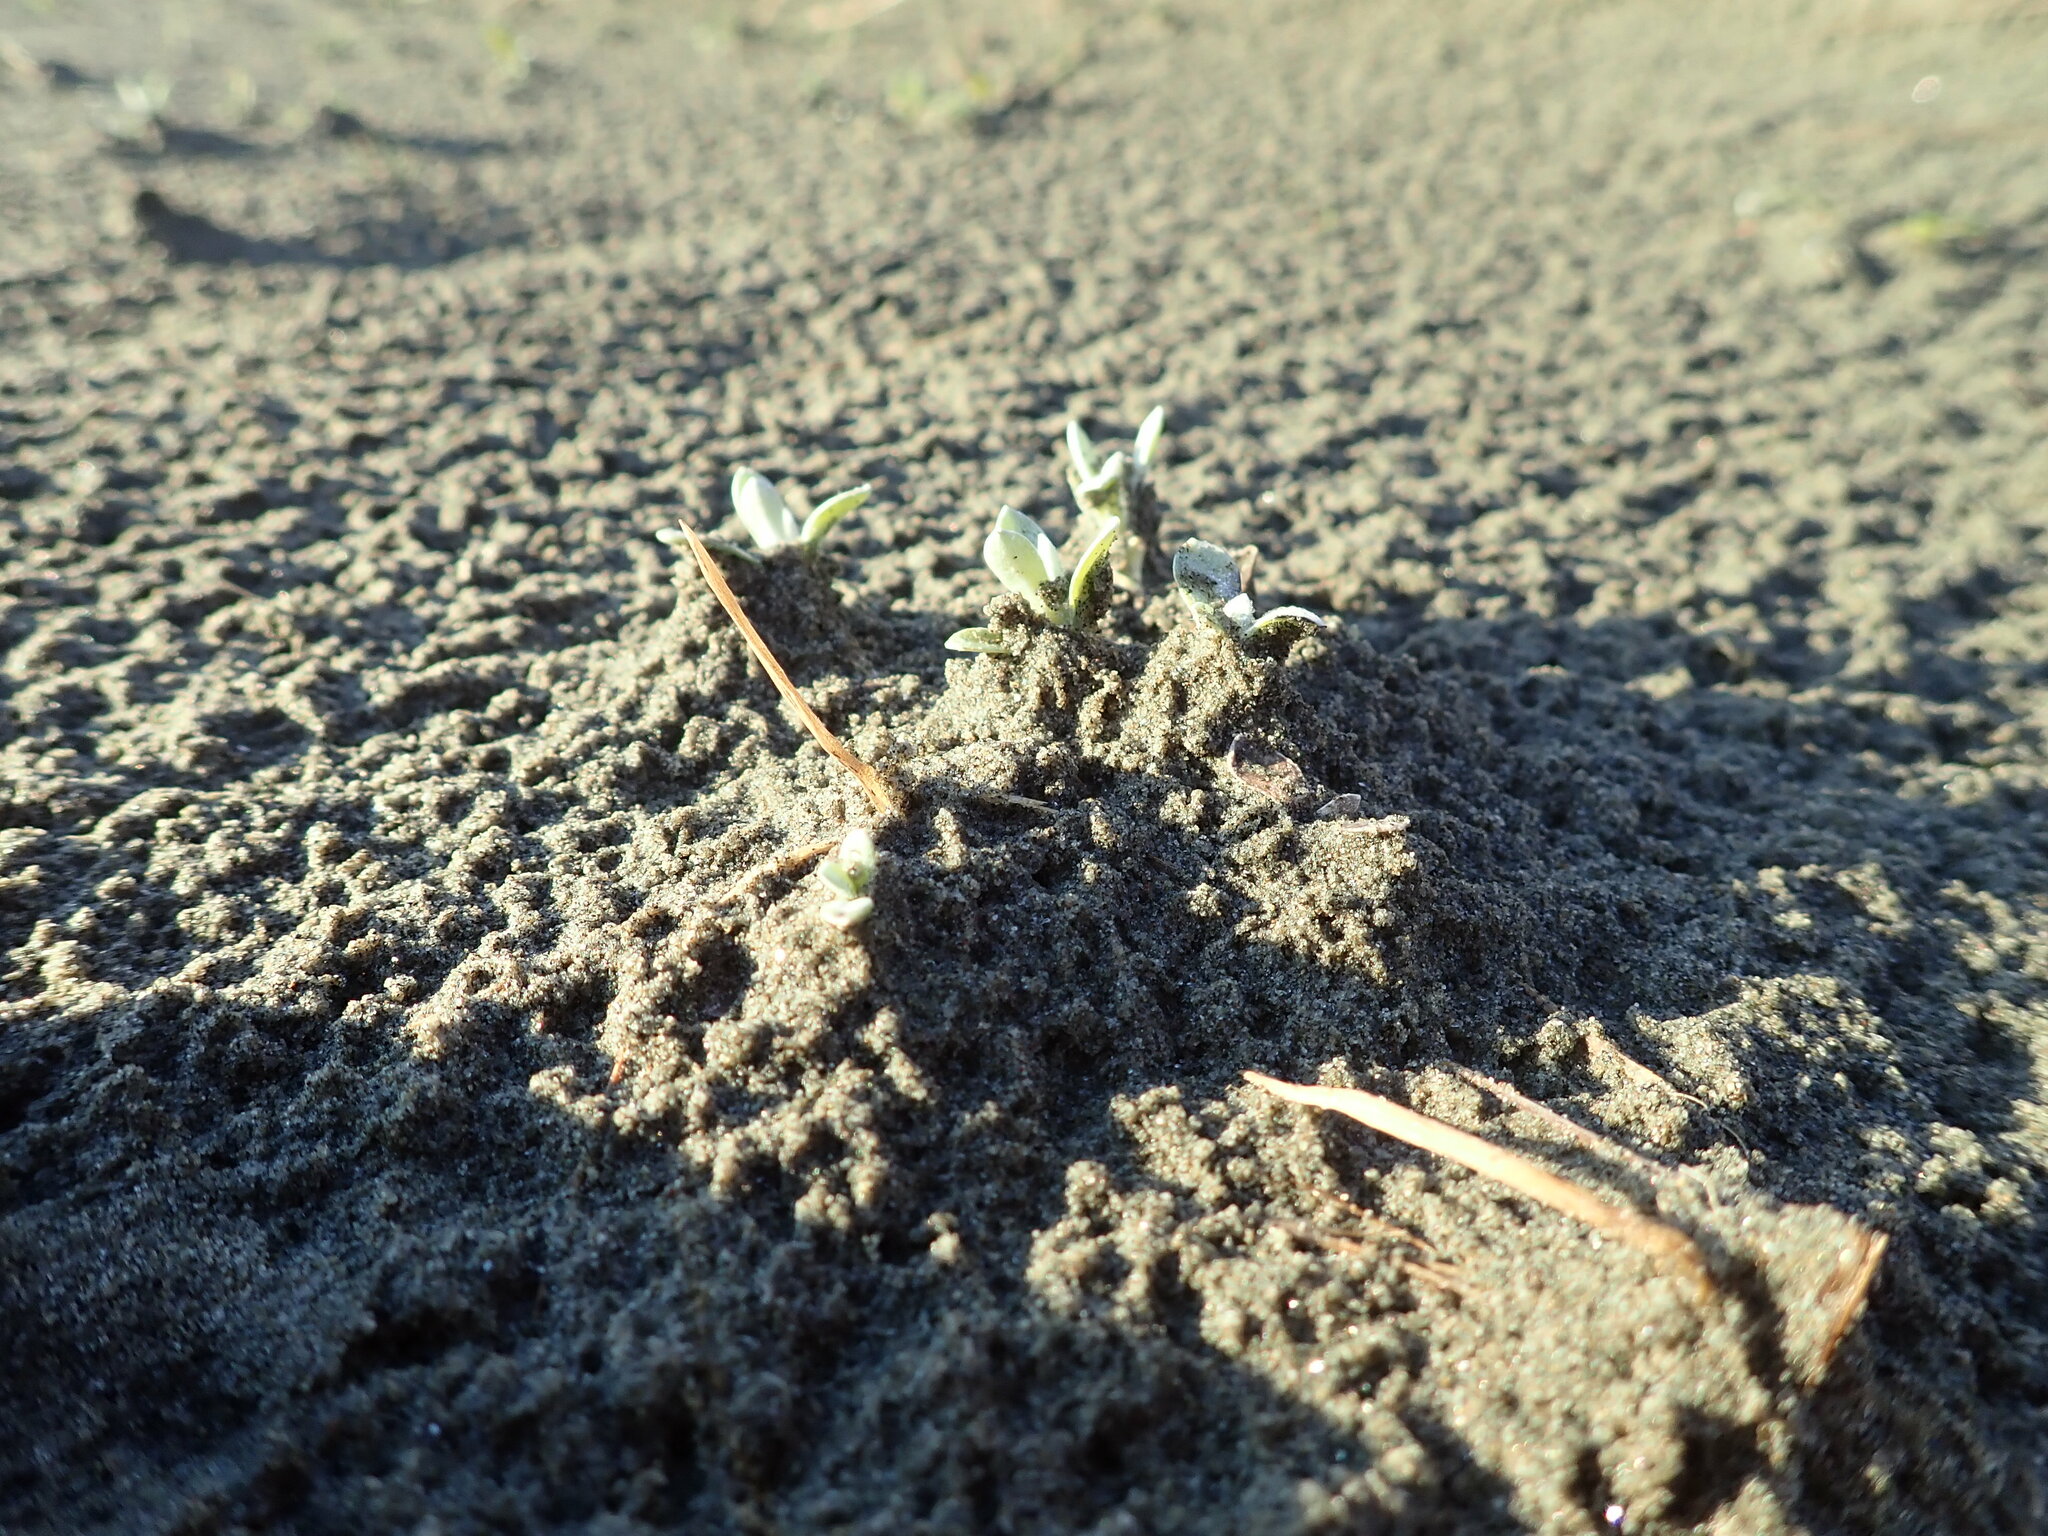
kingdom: Plantae
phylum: Tracheophyta
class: Magnoliopsida
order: Asterales
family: Asteraceae
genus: Helichrysum
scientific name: Helichrysum luteoalbum
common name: Daisy
